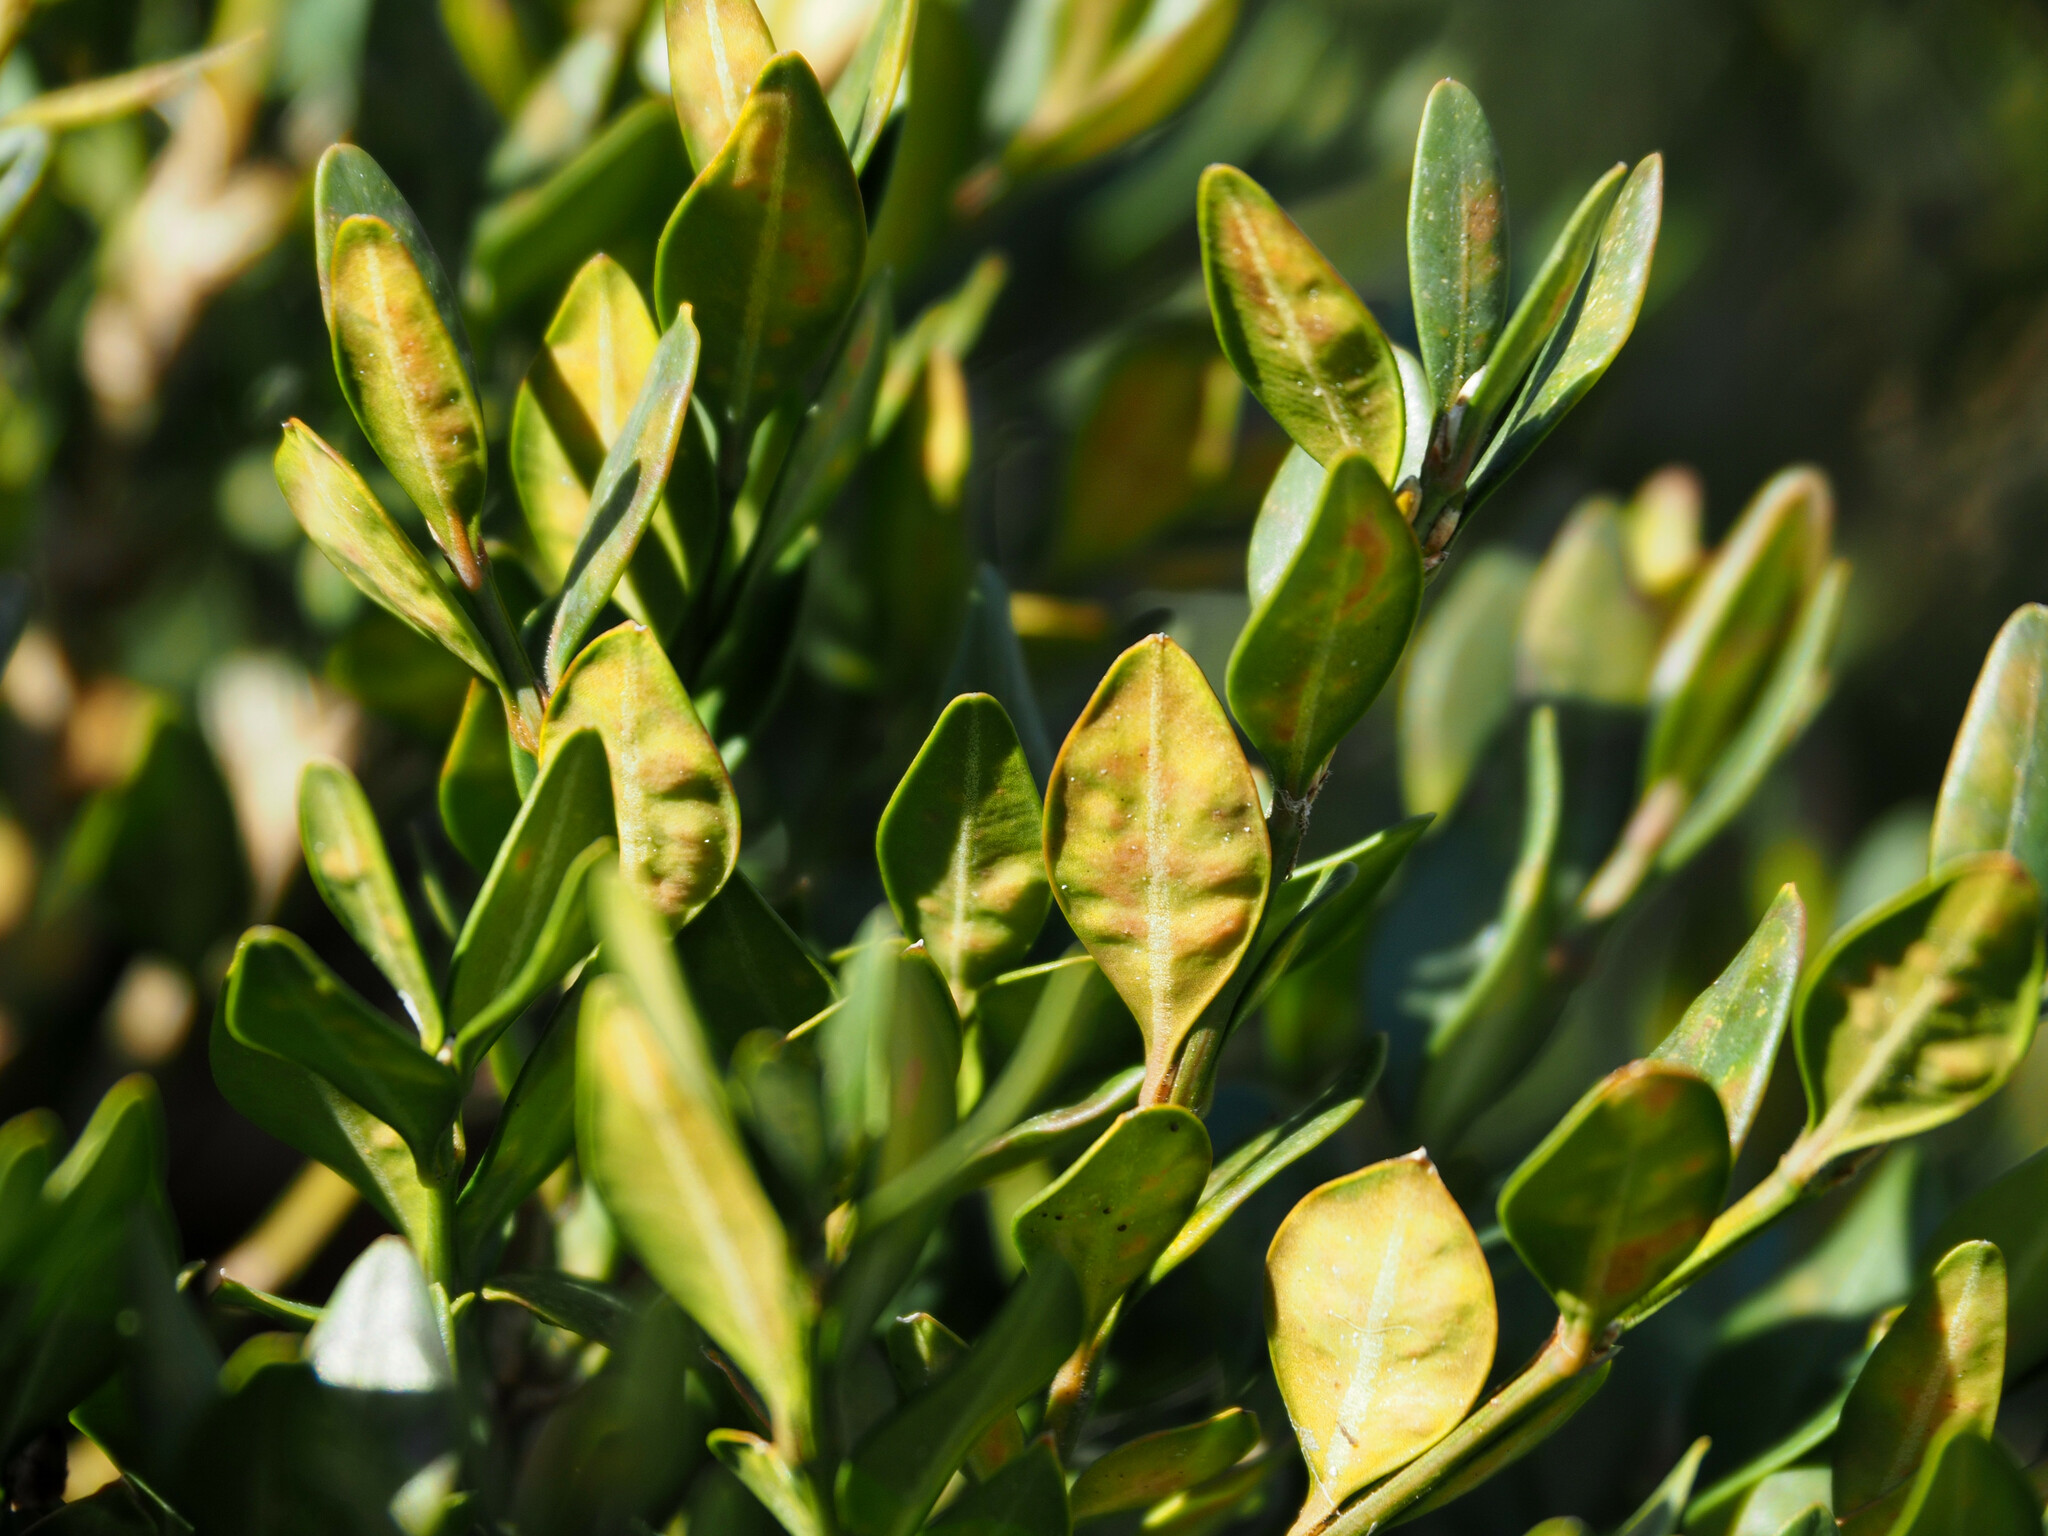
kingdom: Animalia
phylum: Arthropoda
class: Insecta
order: Diptera
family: Cecidomyiidae
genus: Monarthropalpus
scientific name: Monarthropalpus flavus
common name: Boxwood leafminer
